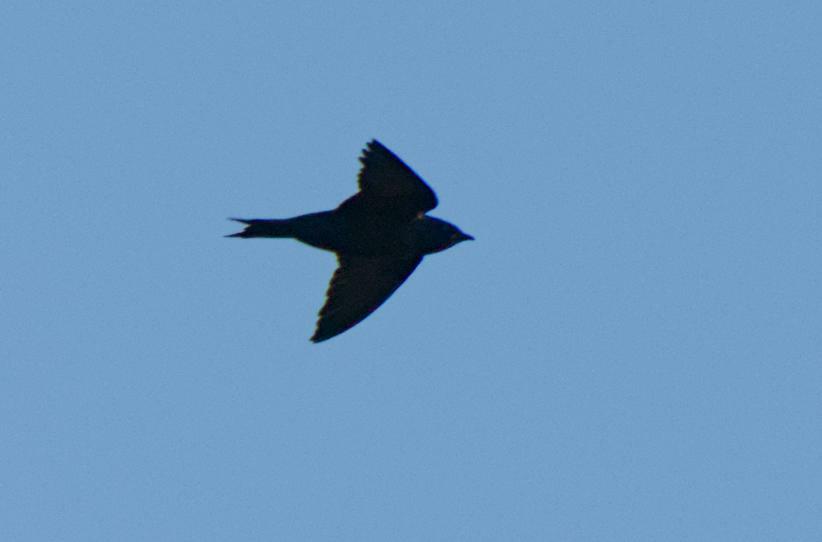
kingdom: Animalia
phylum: Chordata
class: Aves
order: Passeriformes
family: Hirundinidae
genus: Progne
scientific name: Progne subis
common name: Purple martin
